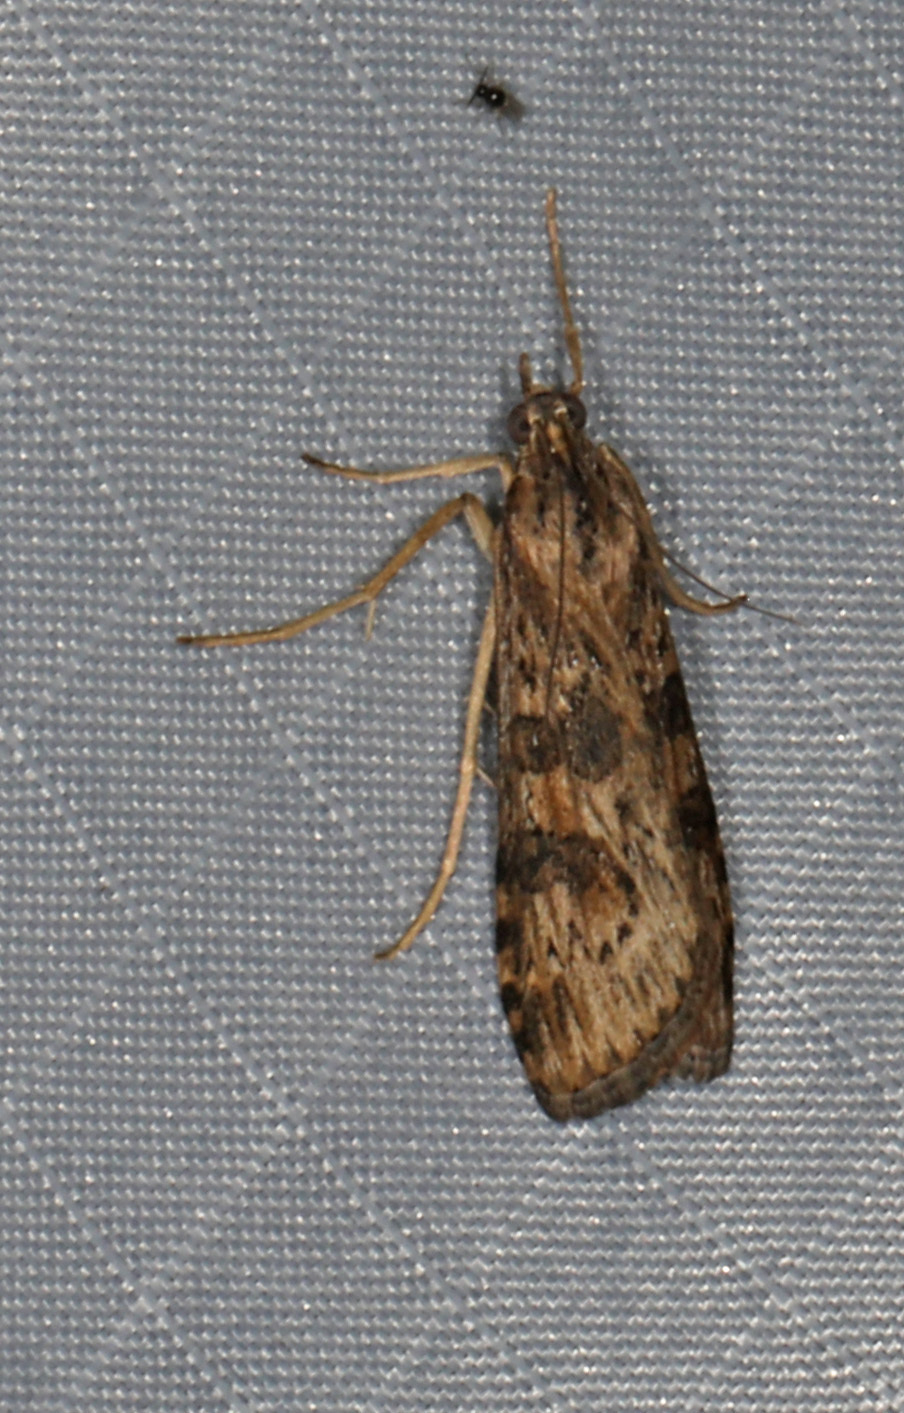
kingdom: Animalia
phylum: Arthropoda
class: Insecta
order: Lepidoptera
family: Crambidae
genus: Nomophila
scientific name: Nomophila nearctica
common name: American rush veneer
